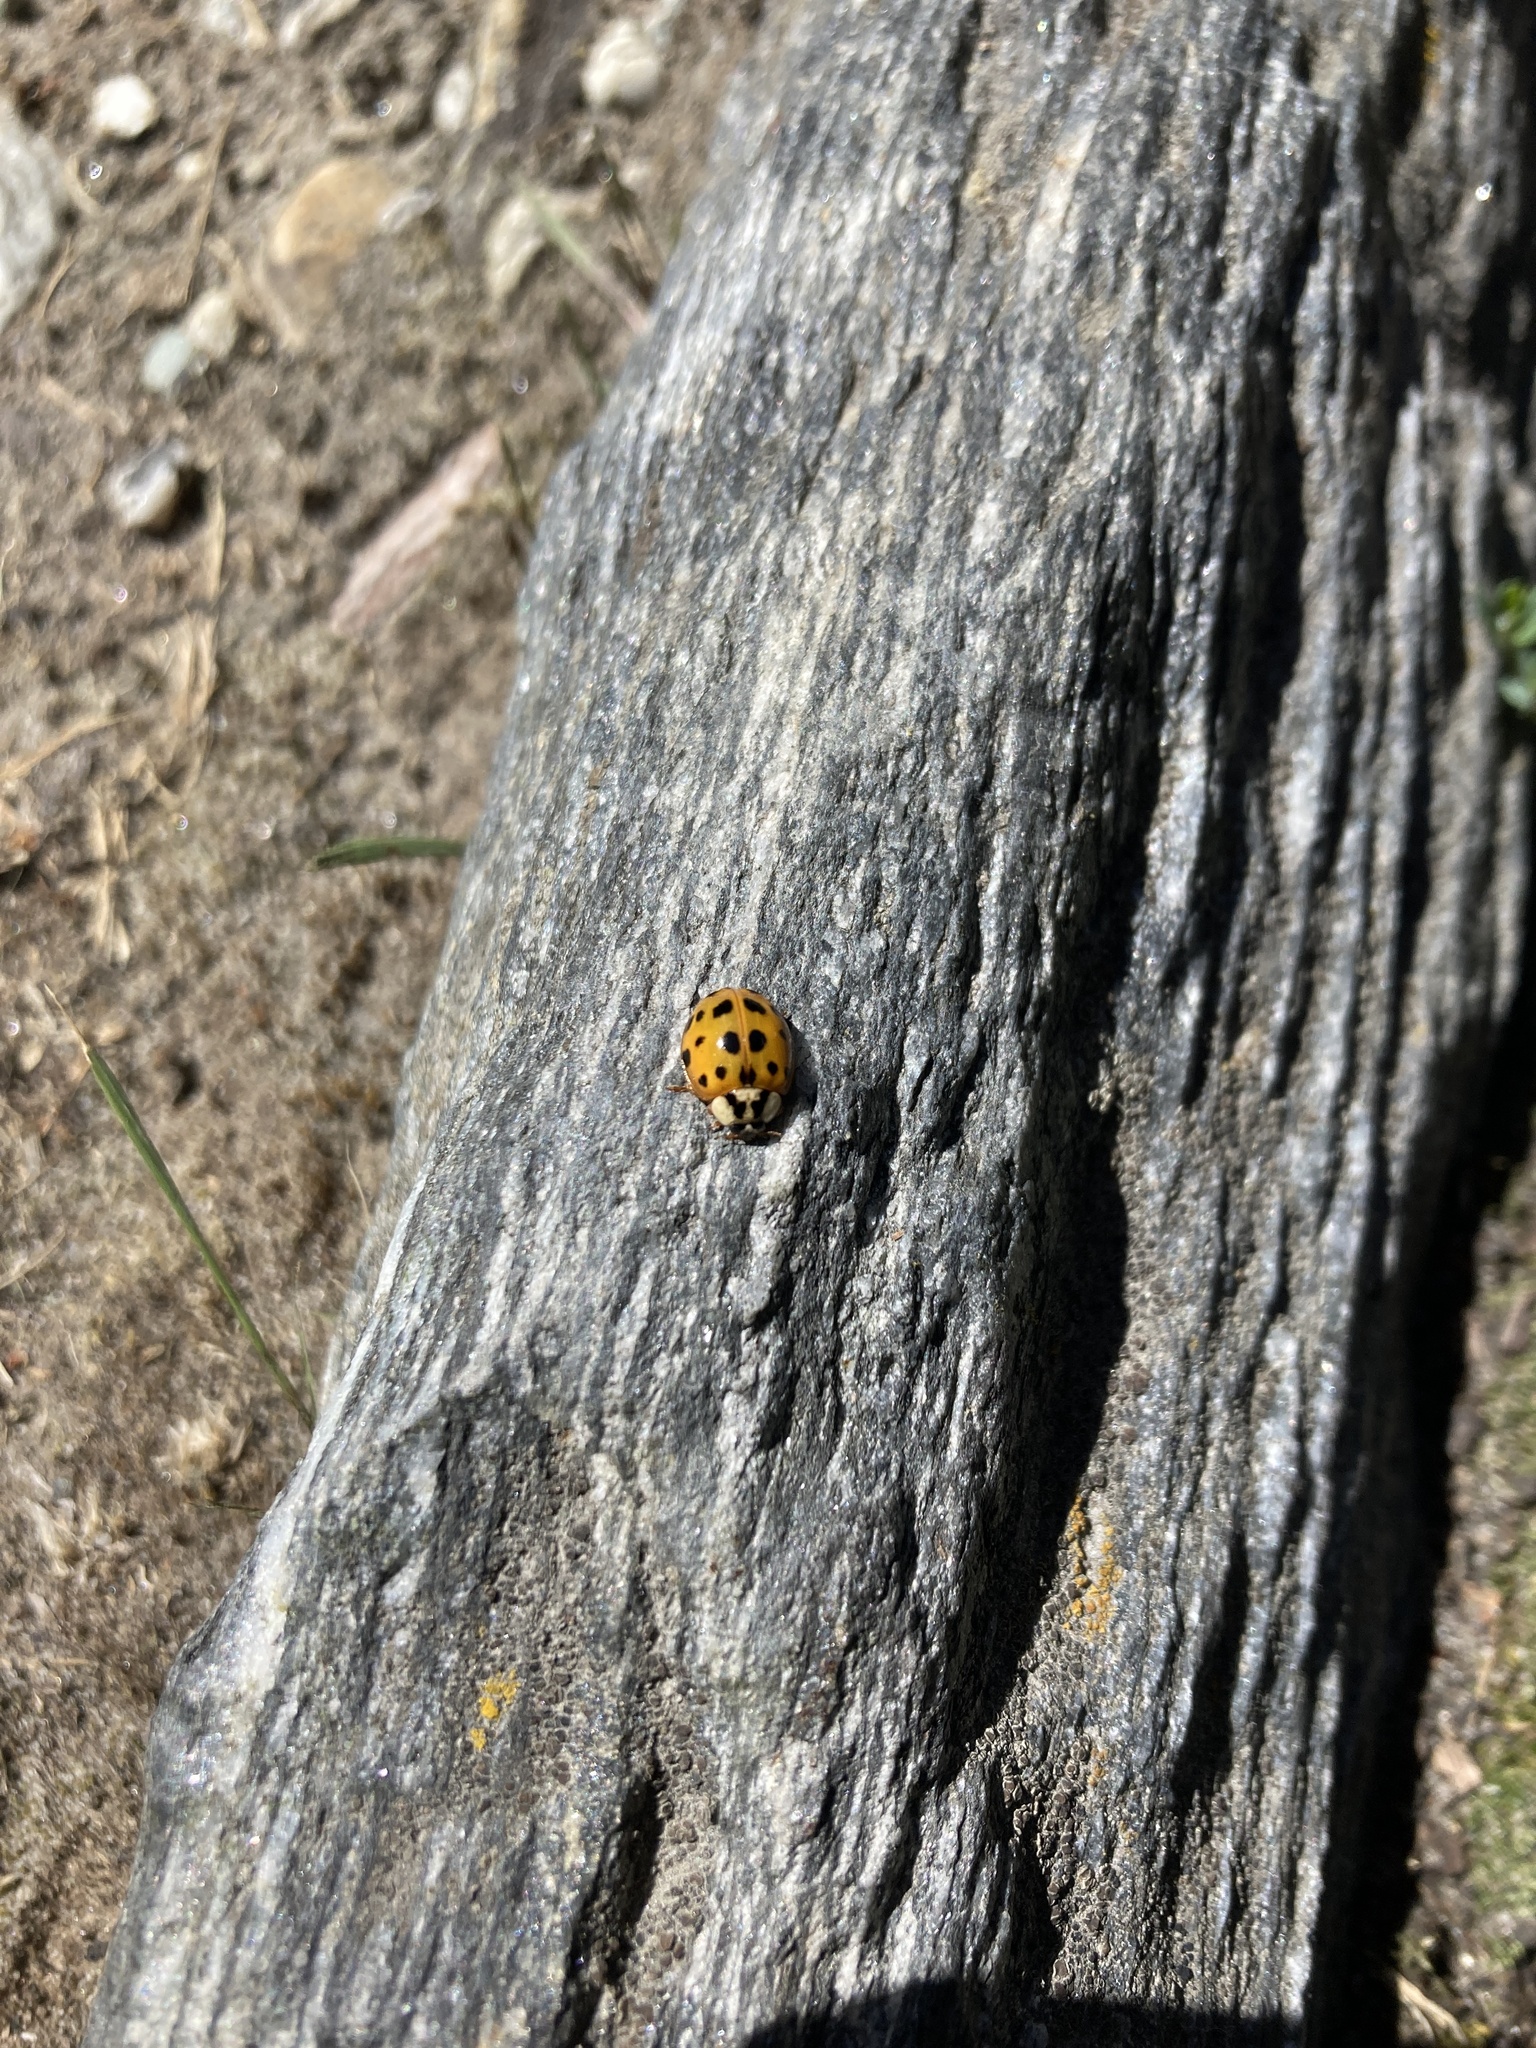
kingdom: Animalia
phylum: Arthropoda
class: Insecta
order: Coleoptera
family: Coccinellidae
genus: Harmonia
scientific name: Harmonia axyridis
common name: Harlequin ladybird
